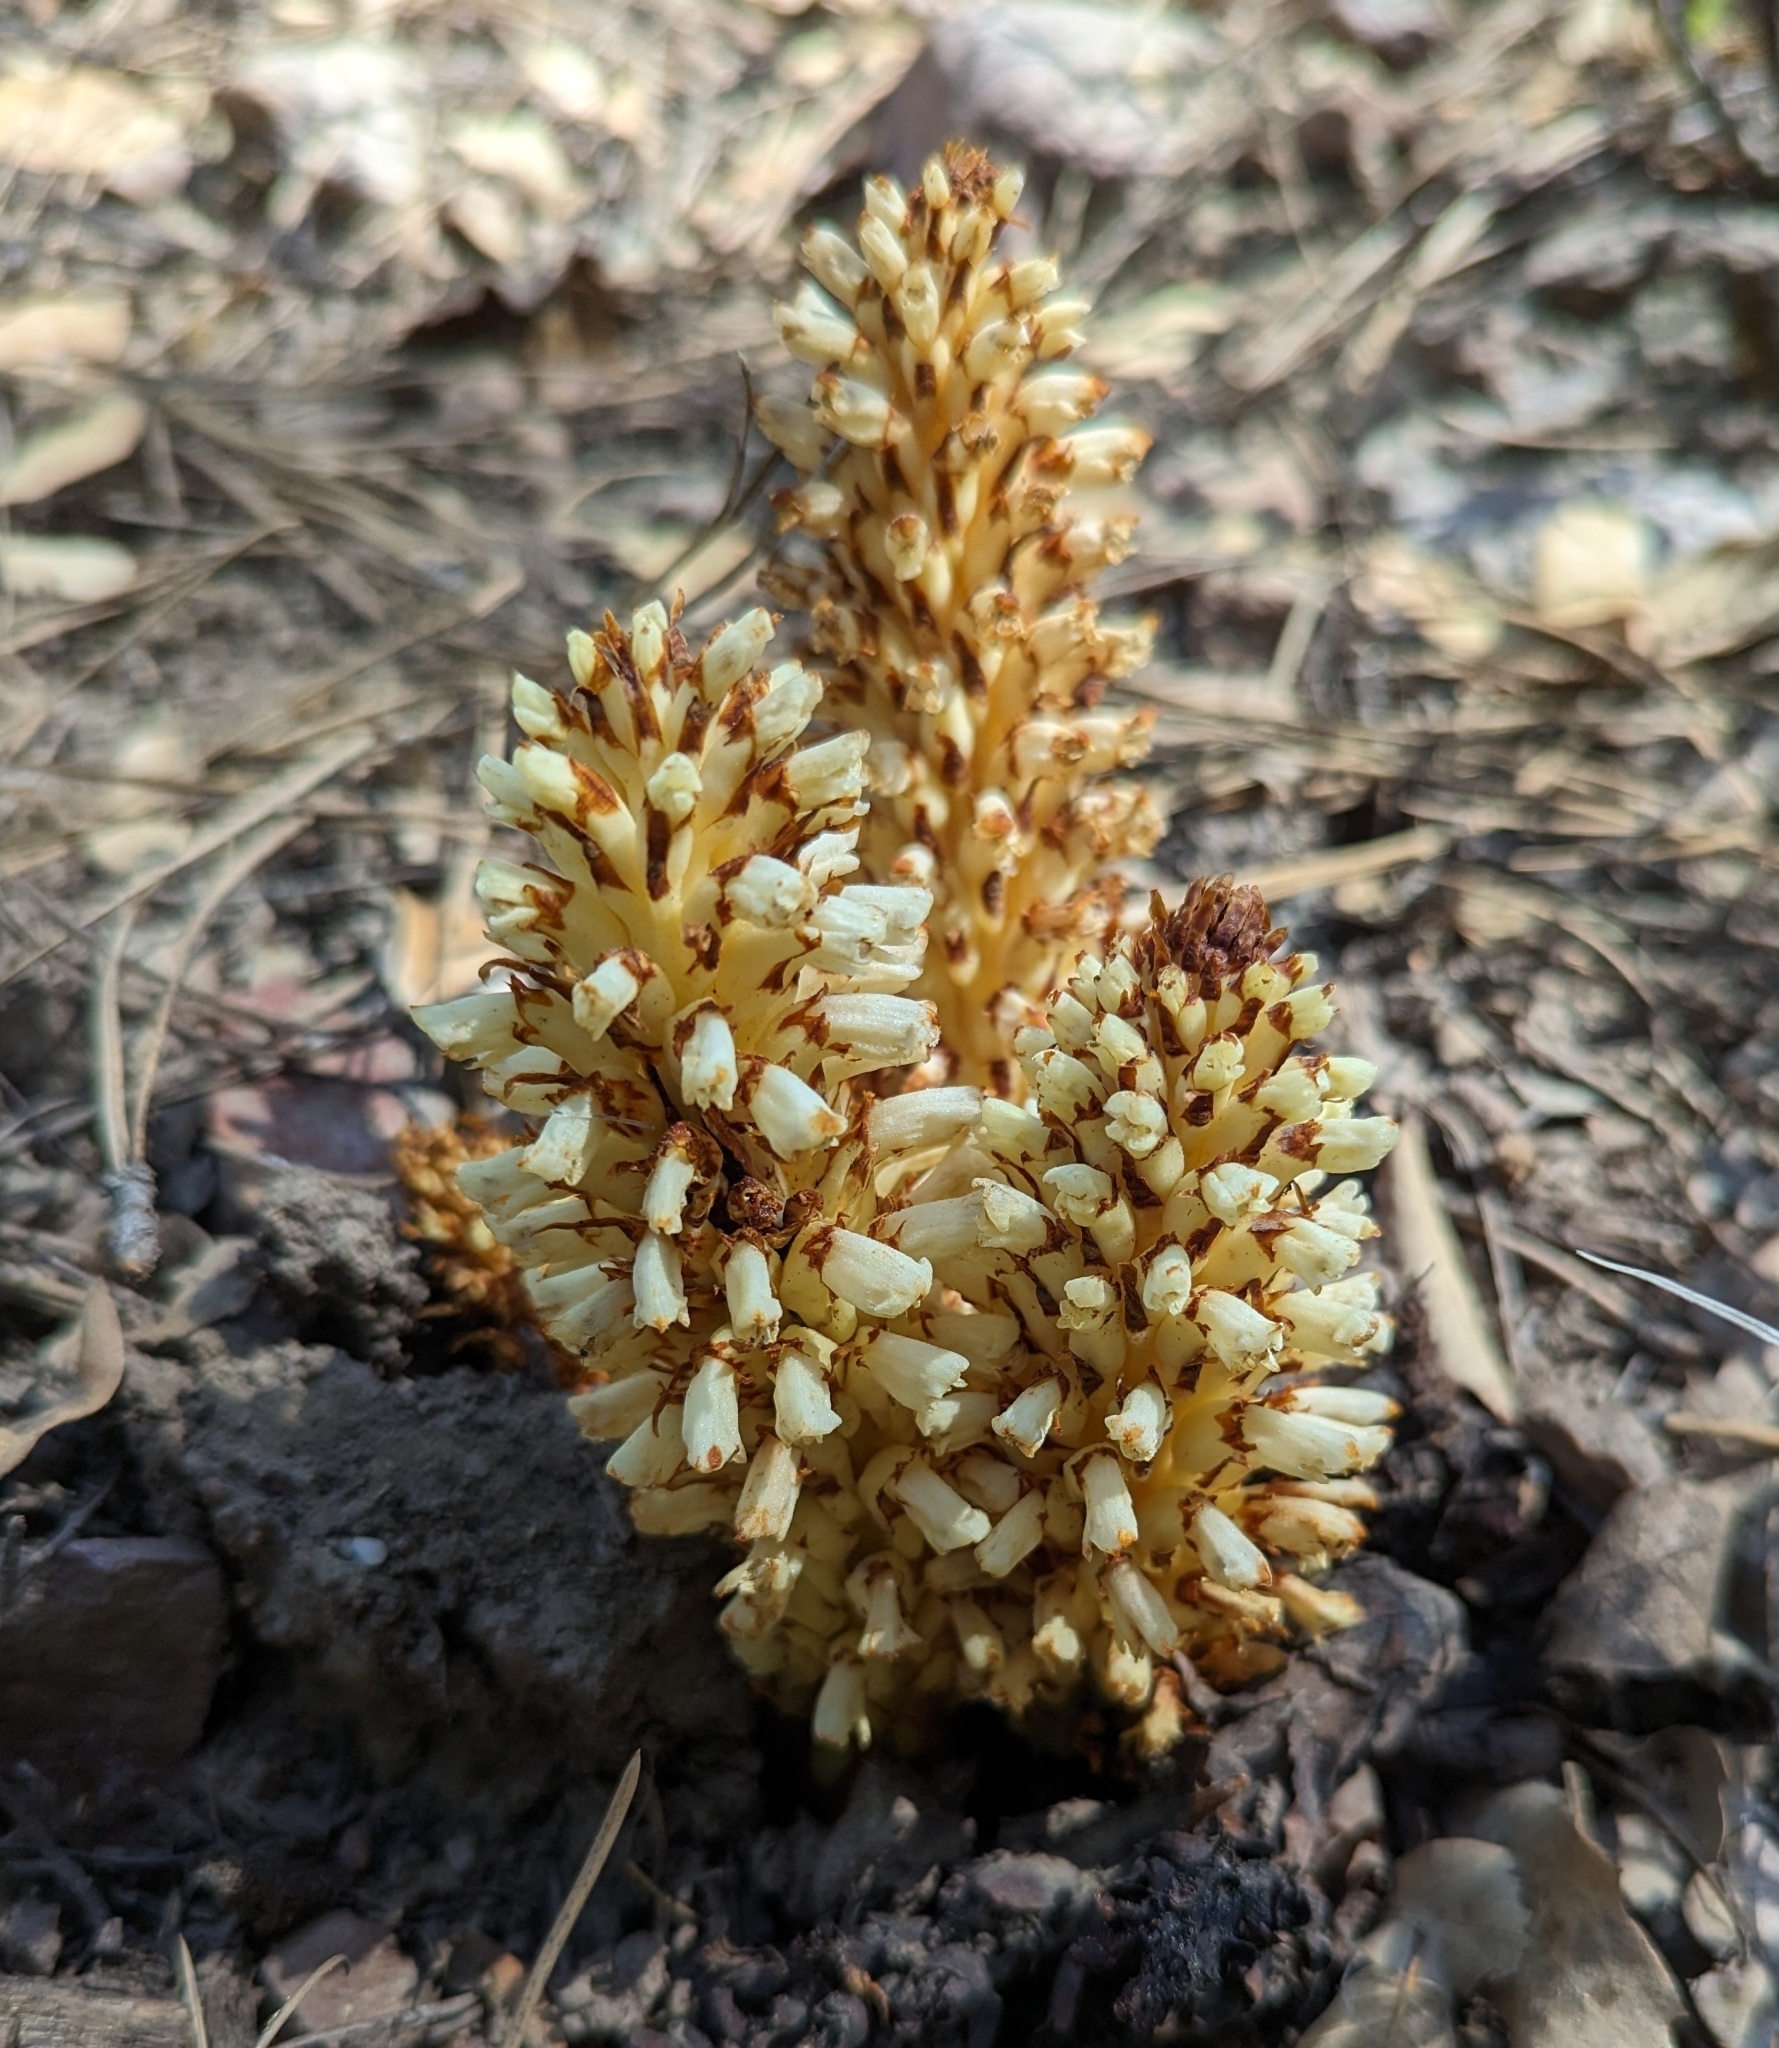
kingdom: Plantae
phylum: Tracheophyta
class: Magnoliopsida
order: Lamiales
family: Orobanchaceae
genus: Conopholis
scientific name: Conopholis alpina
